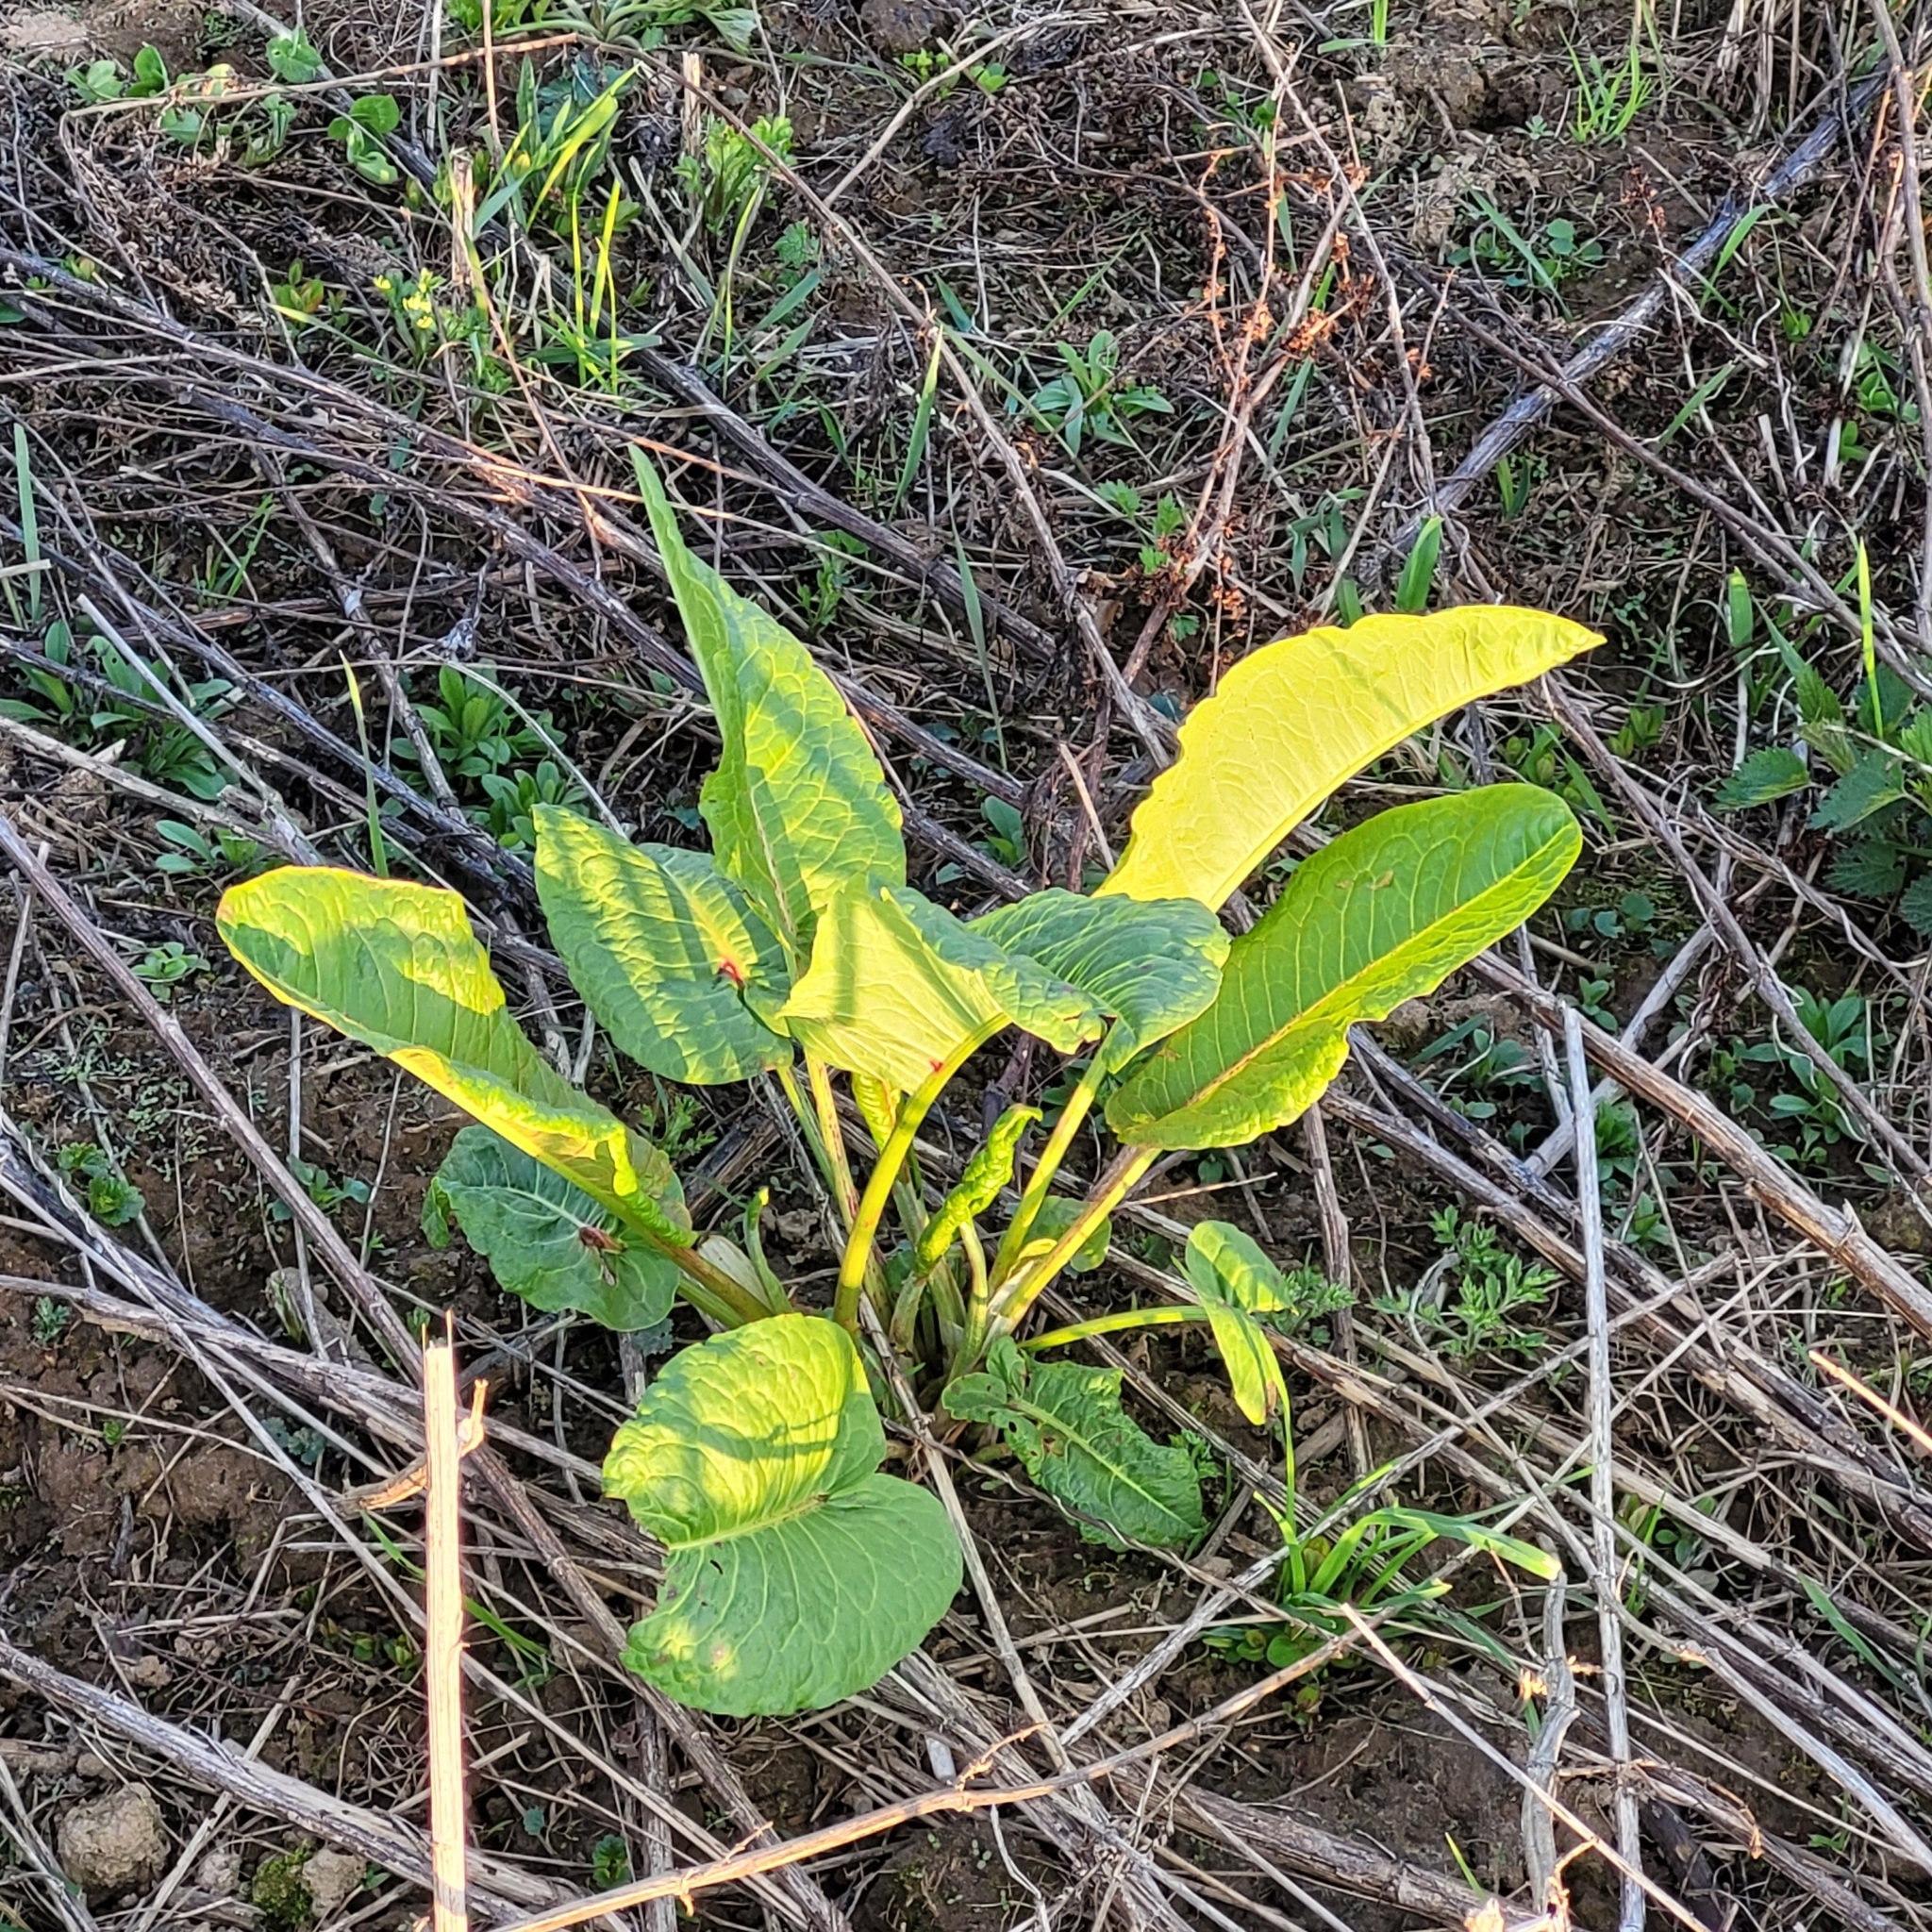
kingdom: Plantae
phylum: Tracheophyta
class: Magnoliopsida
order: Caryophyllales
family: Polygonaceae
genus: Rumex
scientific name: Rumex obtusifolius
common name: Bitter dock
